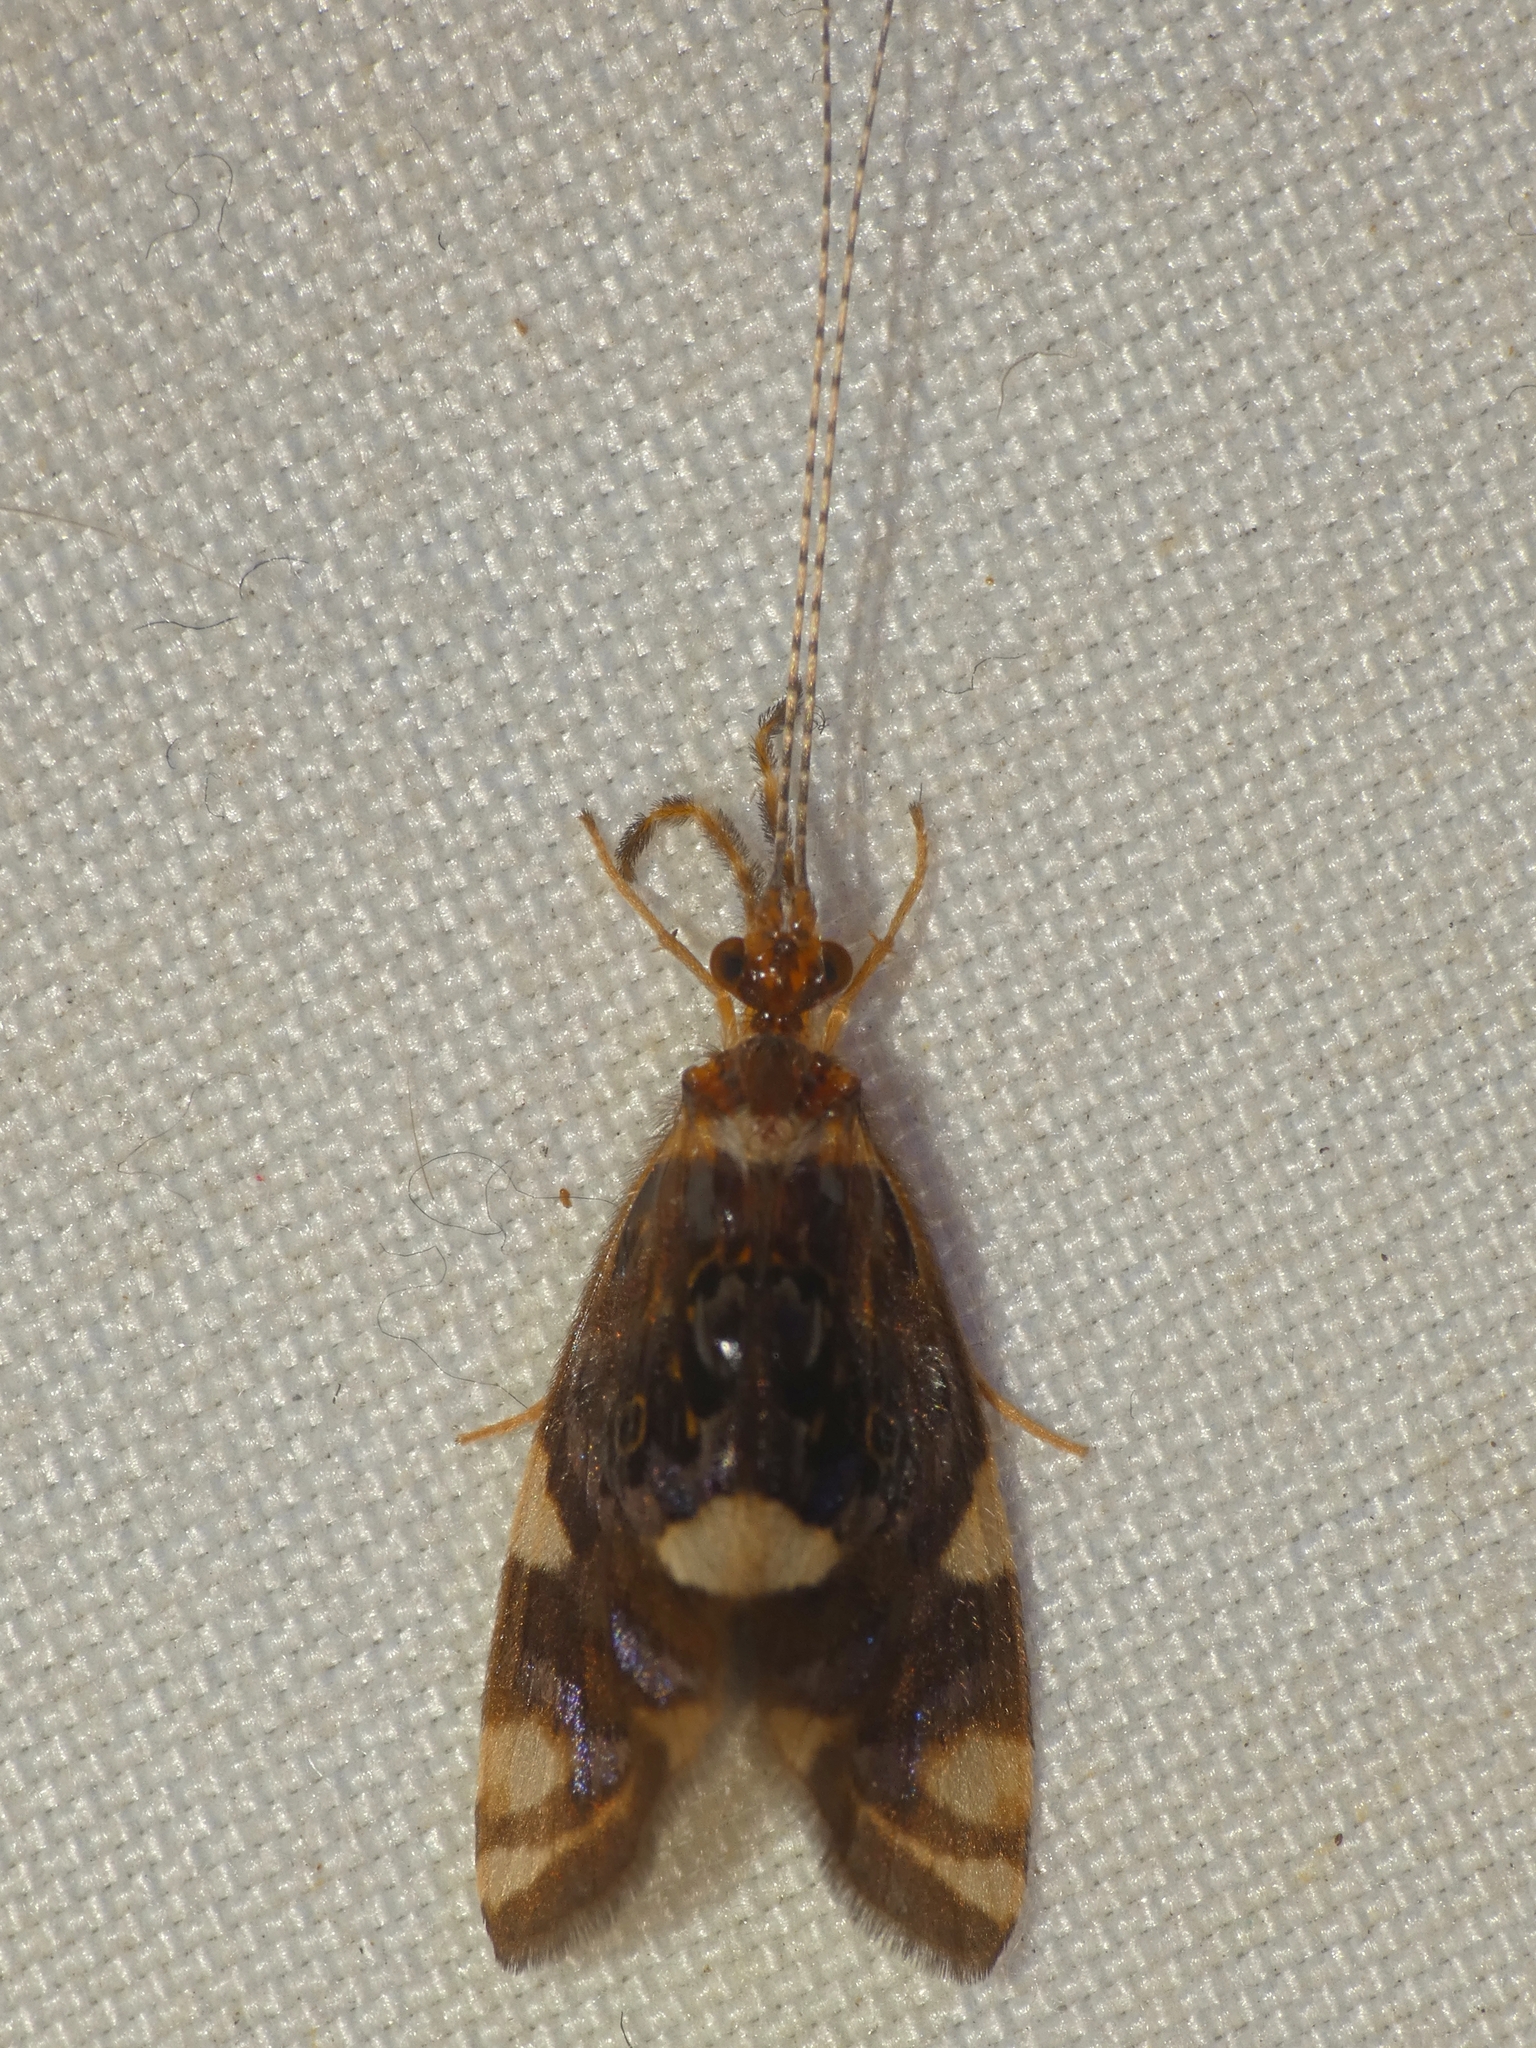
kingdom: Animalia
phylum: Arthropoda
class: Insecta
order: Trichoptera
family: Calamoceratidae
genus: Anisocentropus
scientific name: Anisocentropus banghaasi
